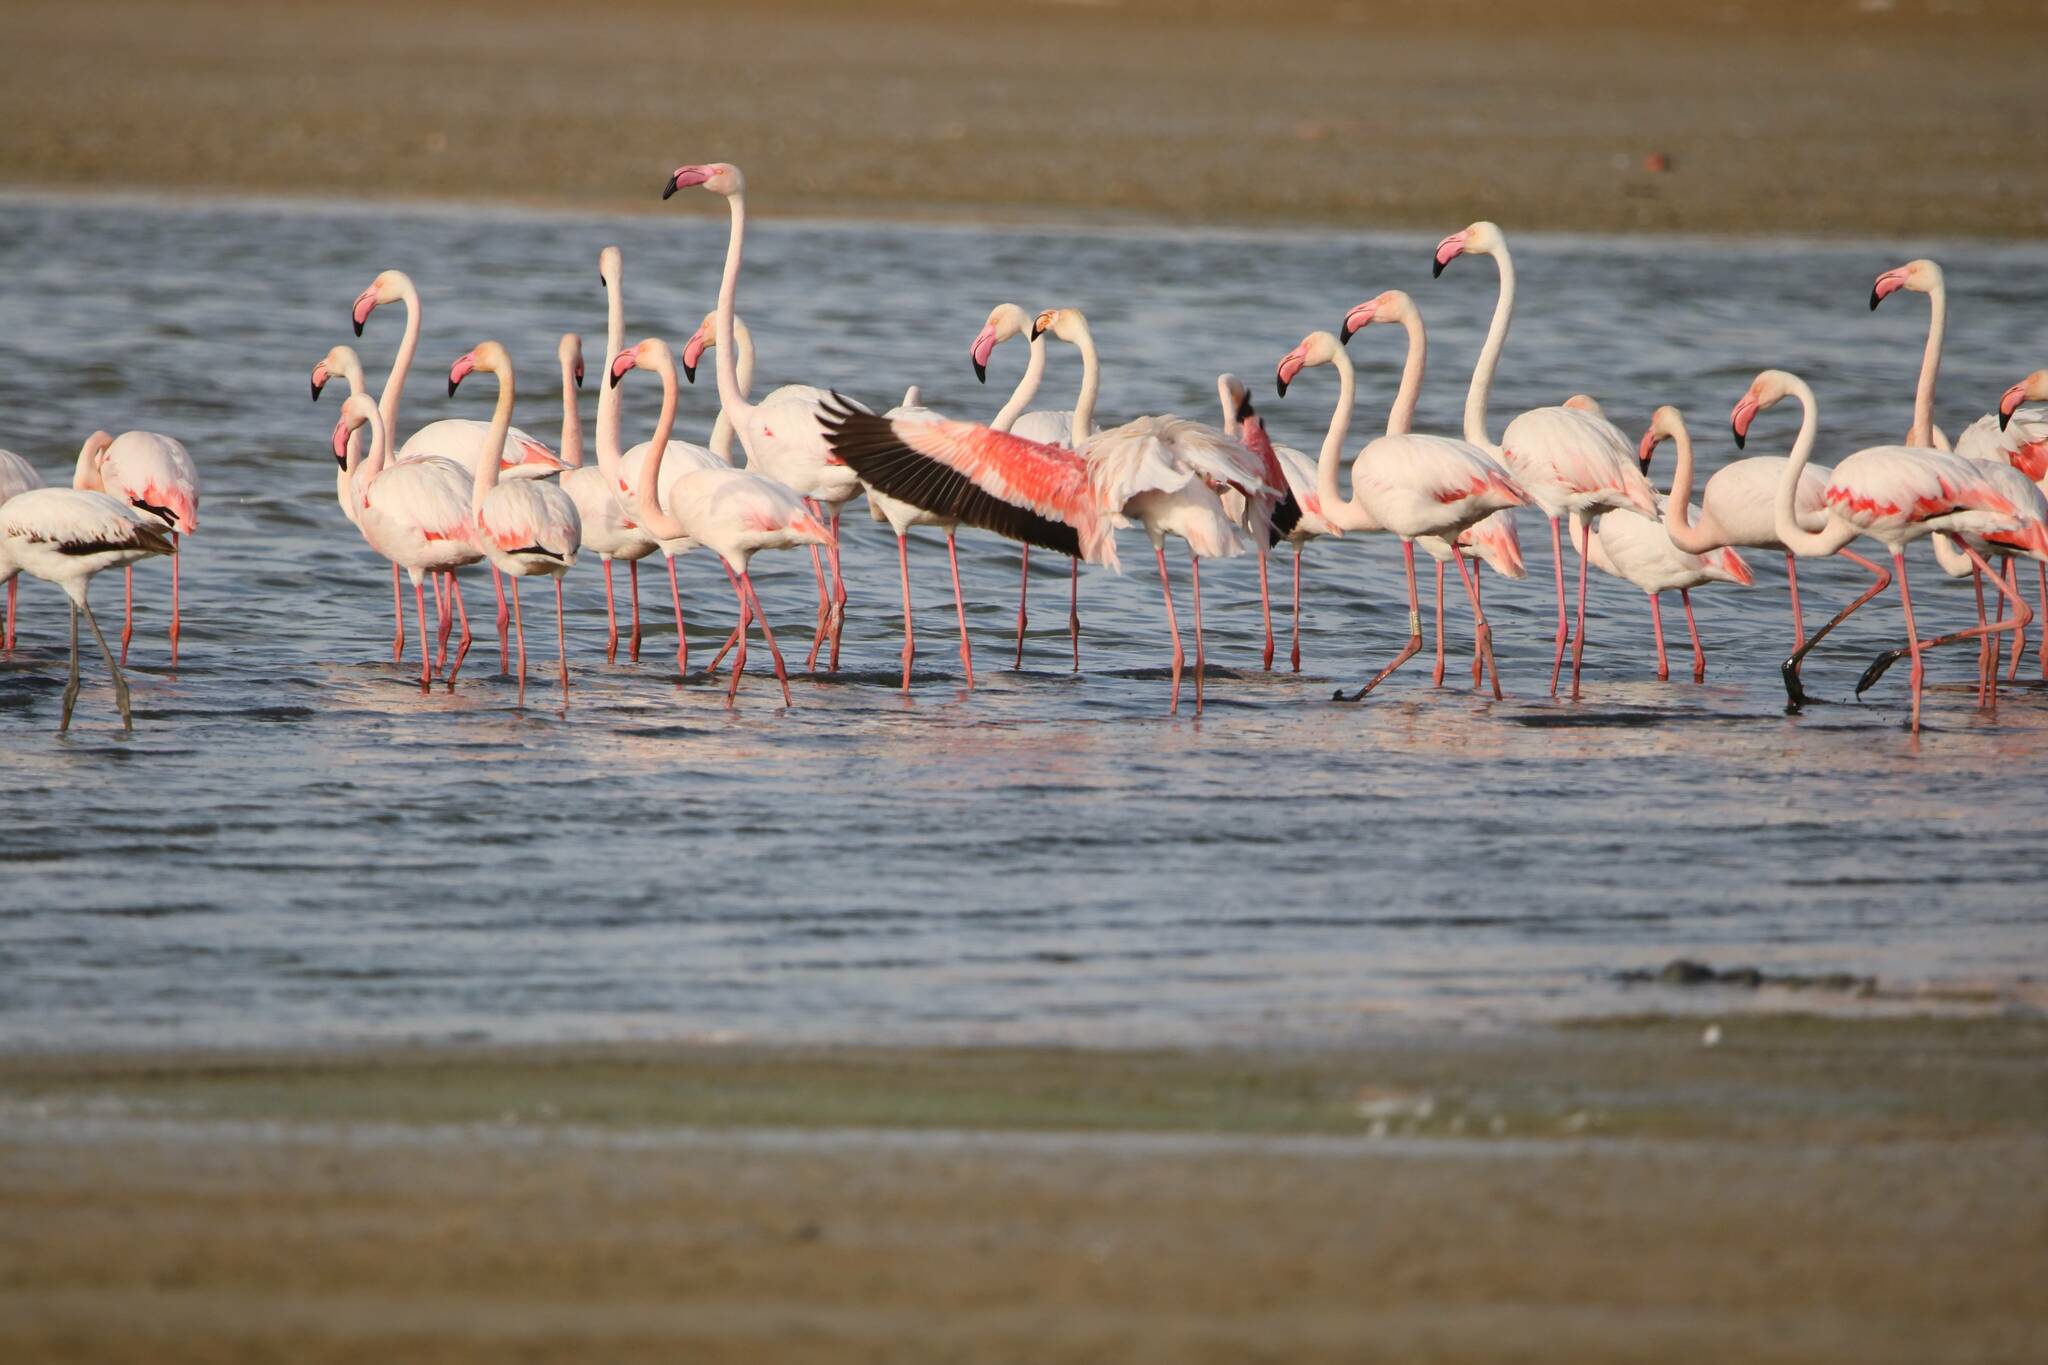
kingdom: Animalia
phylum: Chordata
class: Aves
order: Phoenicopteriformes
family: Phoenicopteridae
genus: Phoenicopterus
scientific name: Phoenicopterus roseus
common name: Greater flamingo
